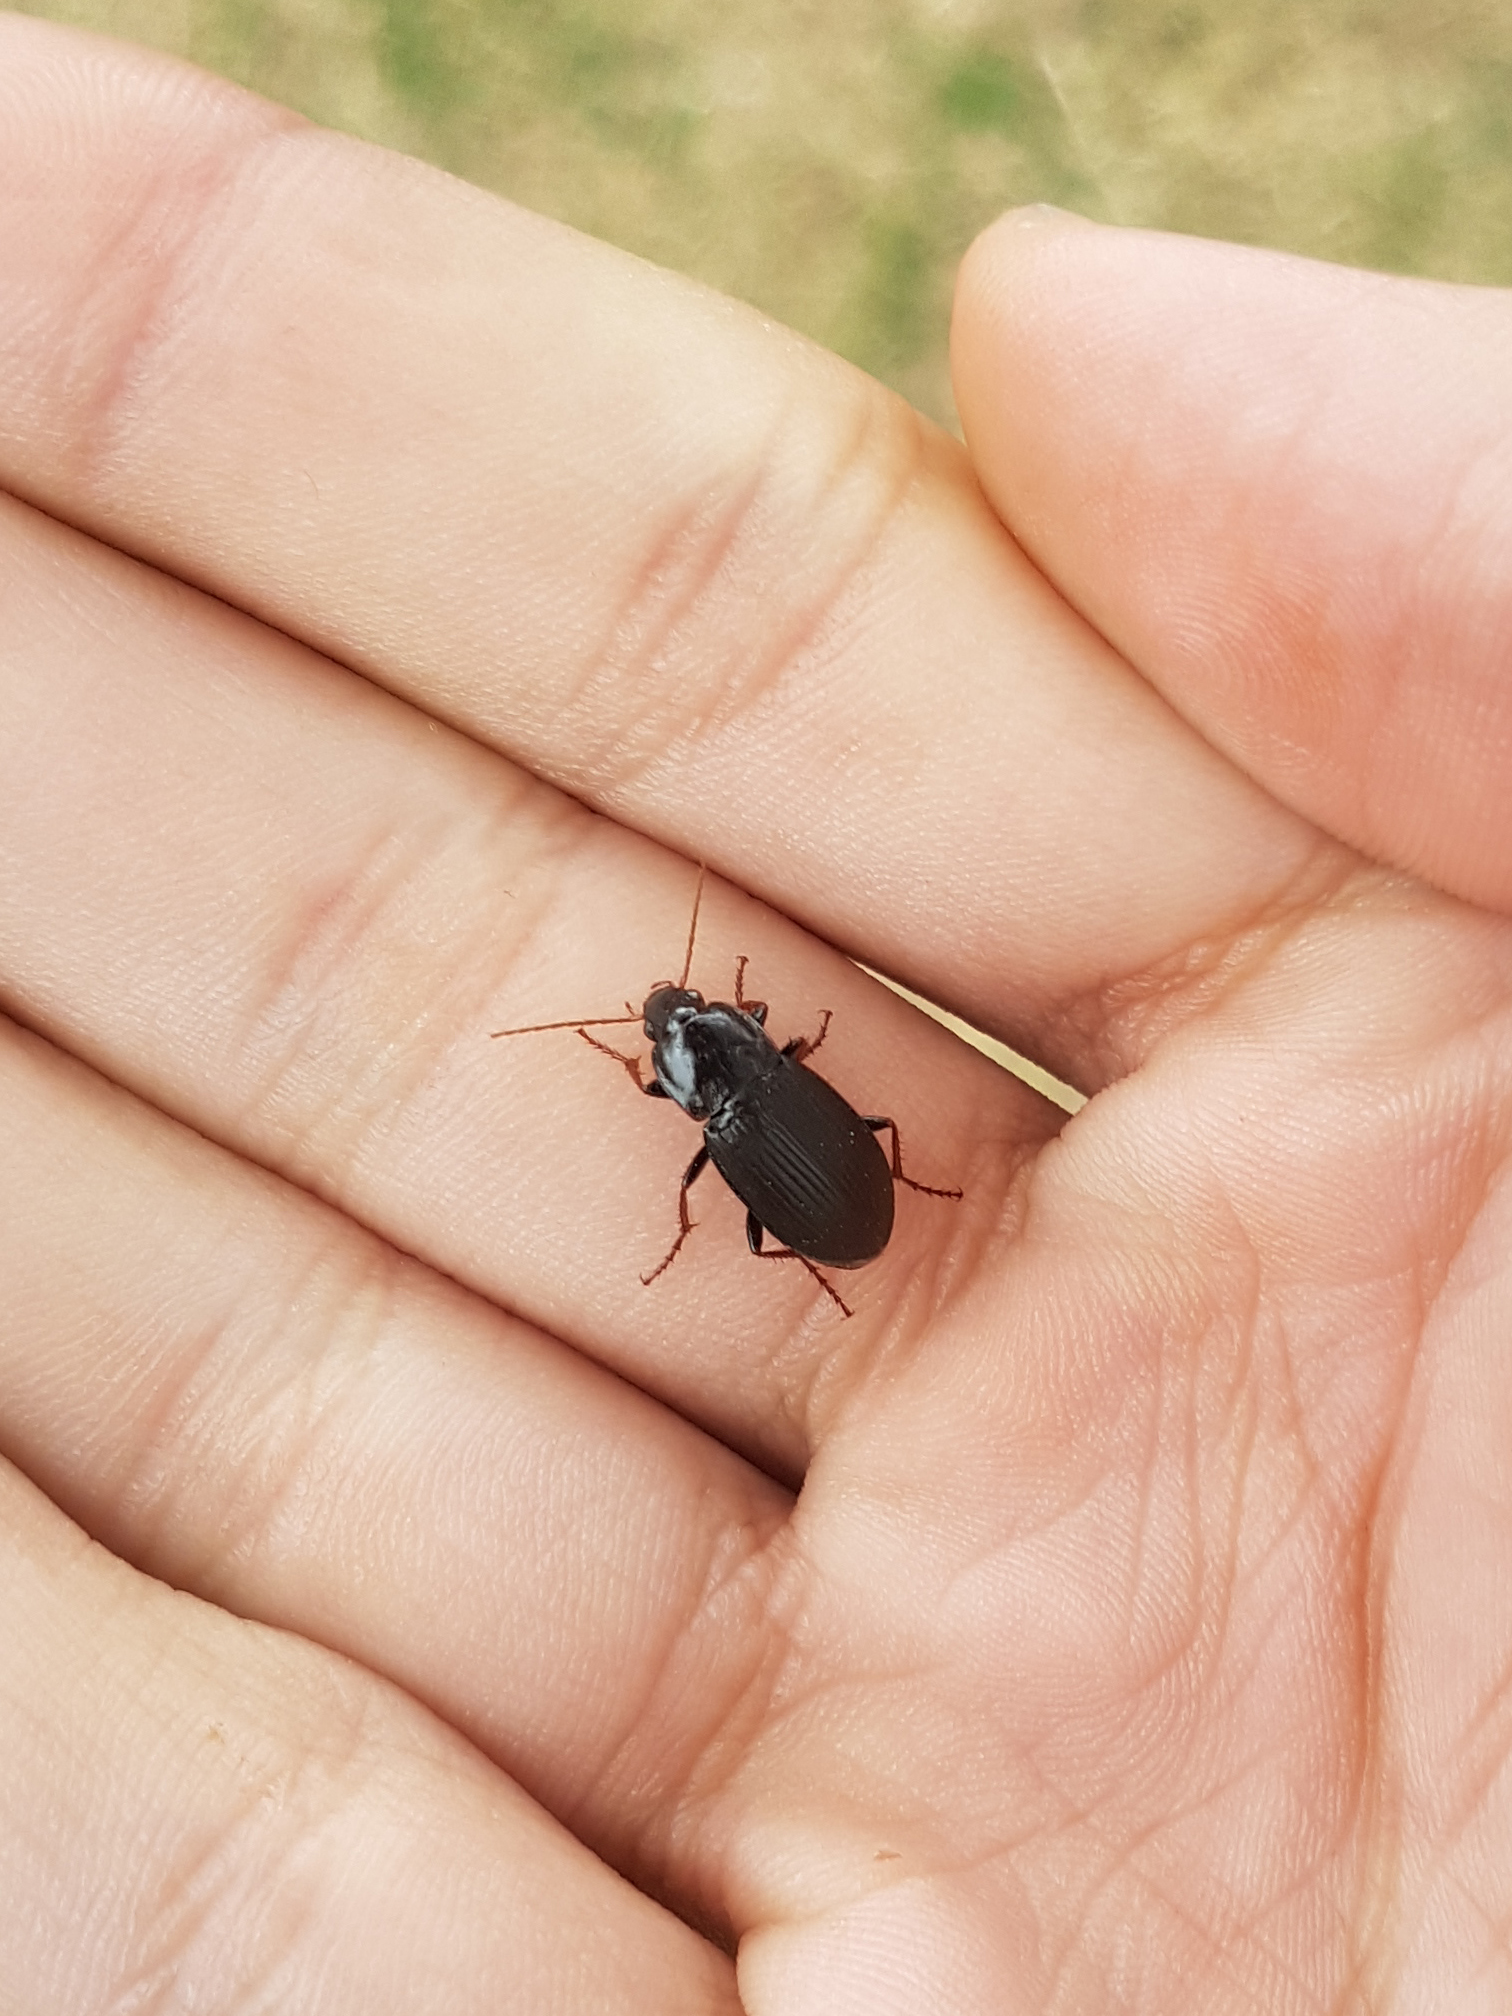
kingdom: Animalia
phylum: Arthropoda
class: Insecta
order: Coleoptera
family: Carabidae
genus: Calathus
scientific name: Calathus fuscipes
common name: Dark-footed harp ground beetle
